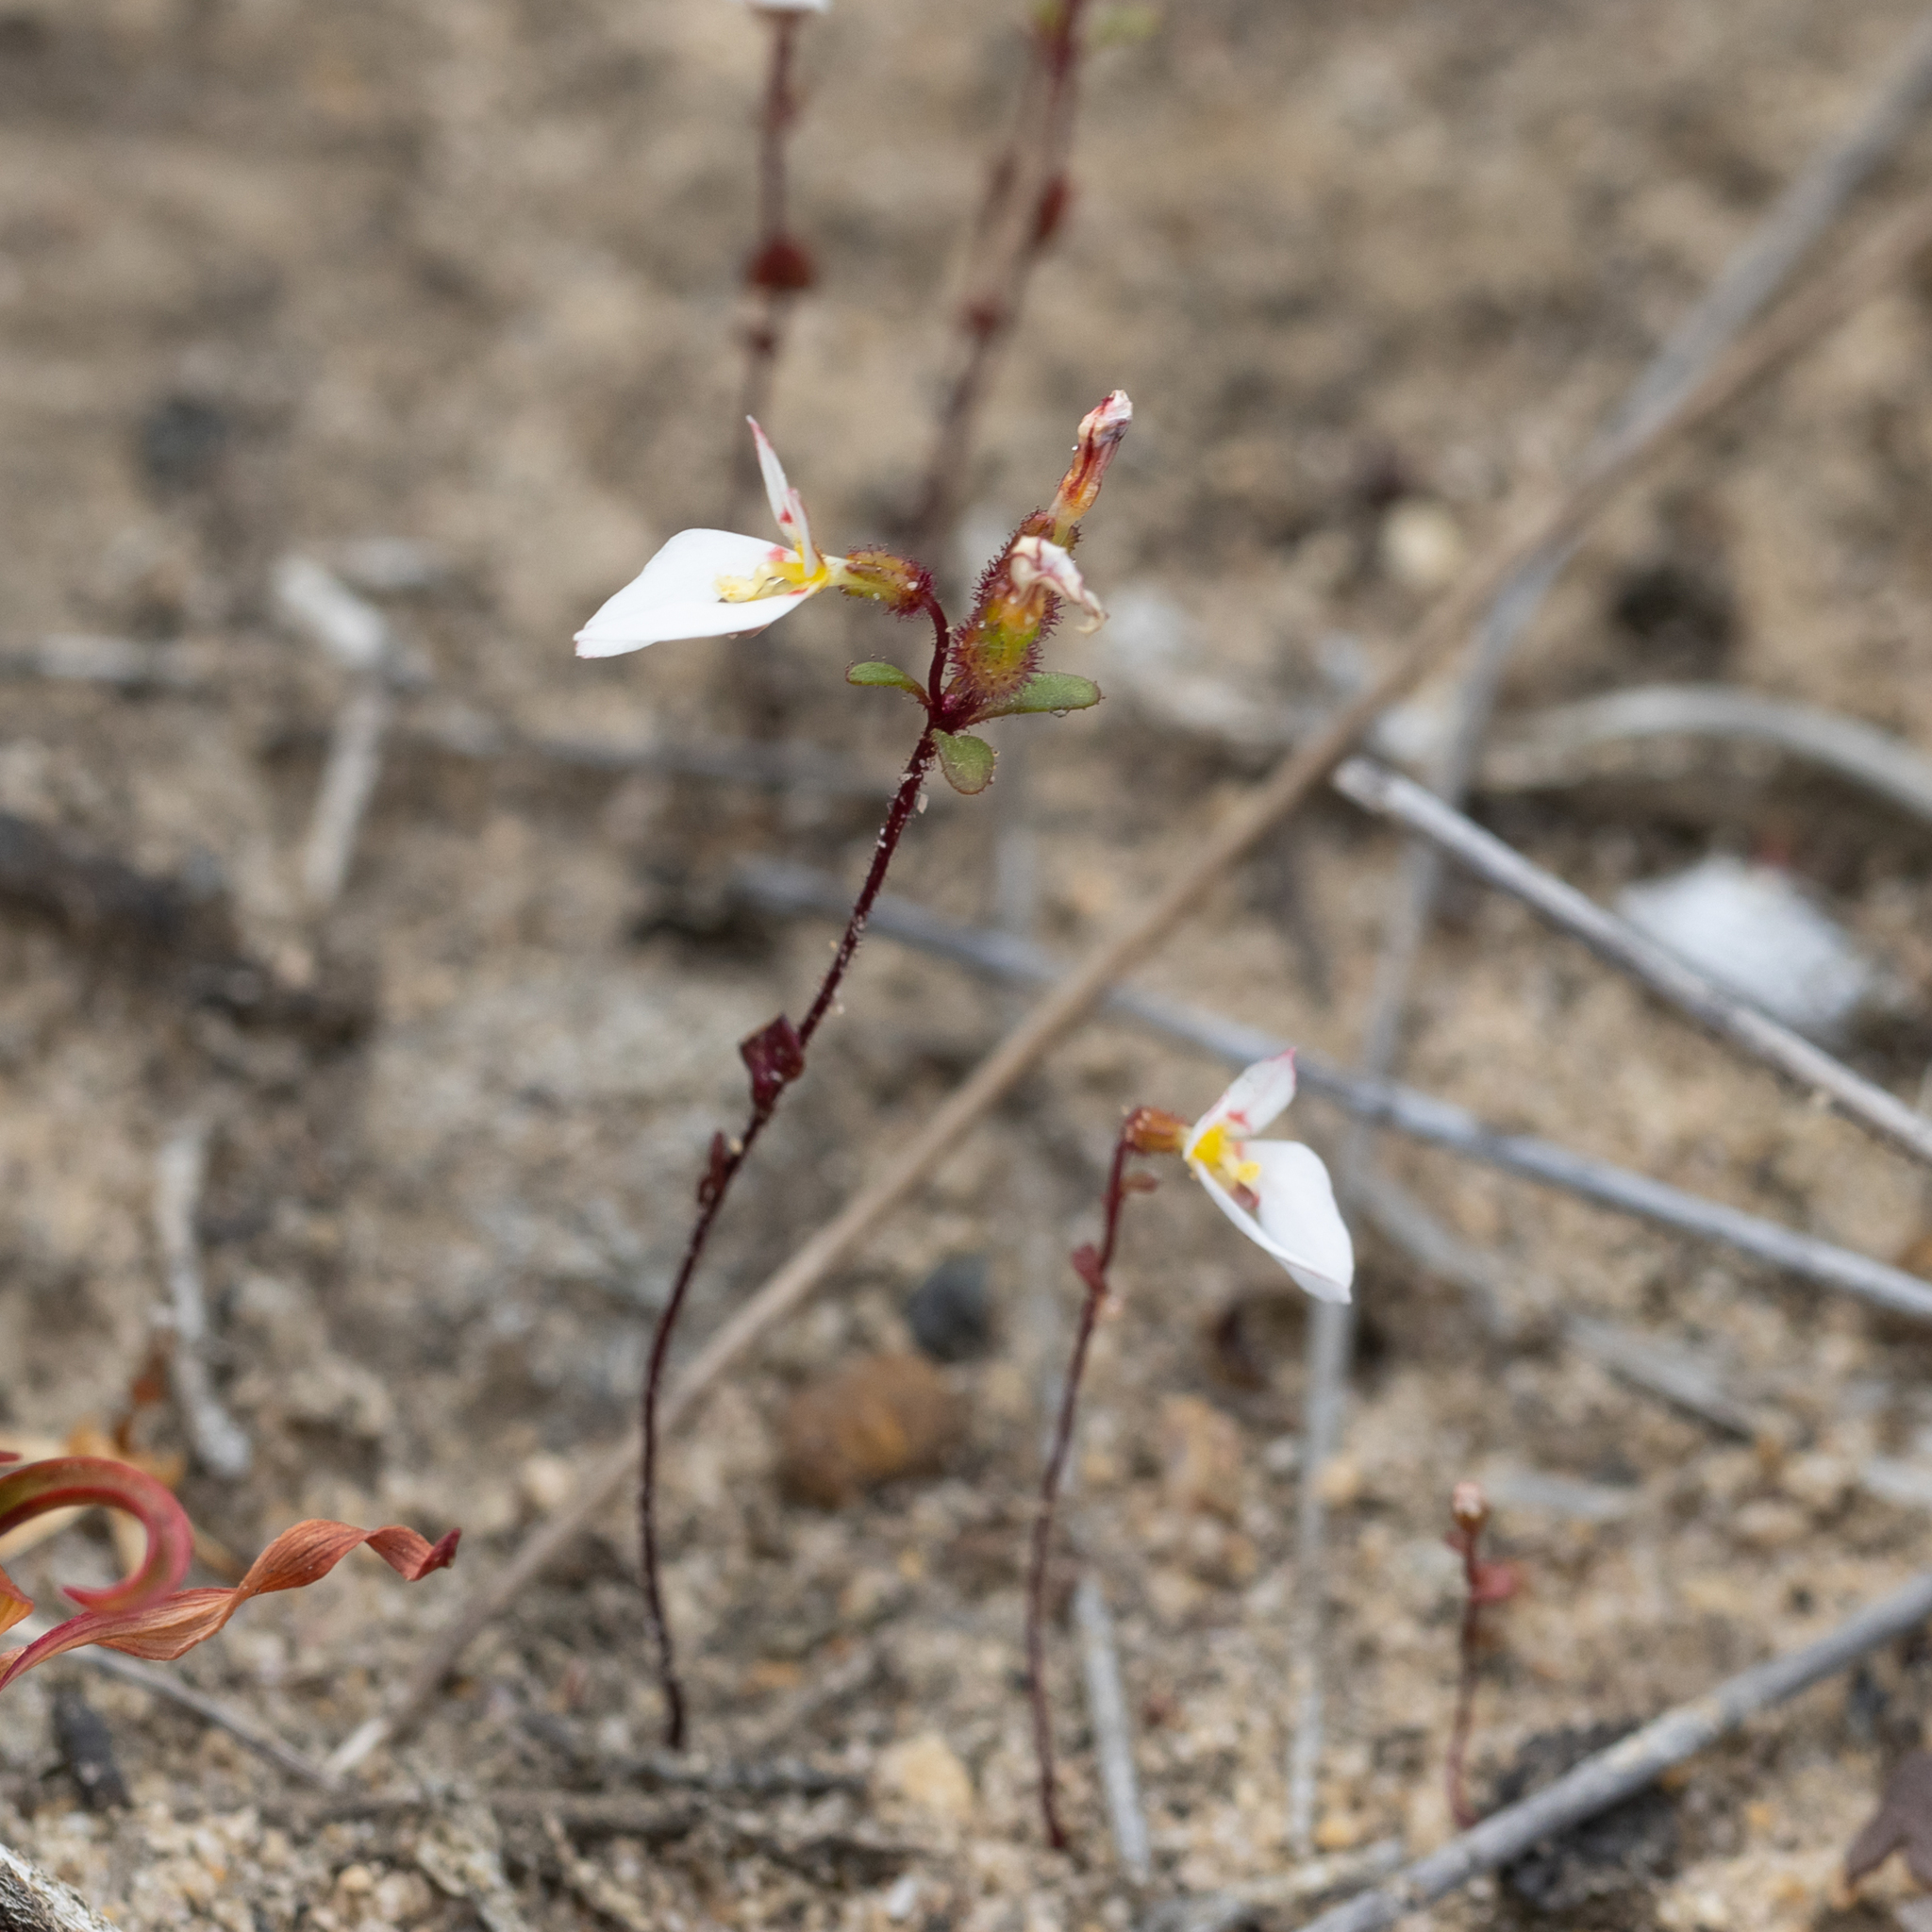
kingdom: Plantae
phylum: Tracheophyta
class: Magnoliopsida
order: Asterales
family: Stylidiaceae
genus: Levenhookia
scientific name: Levenhookia pauciflora
